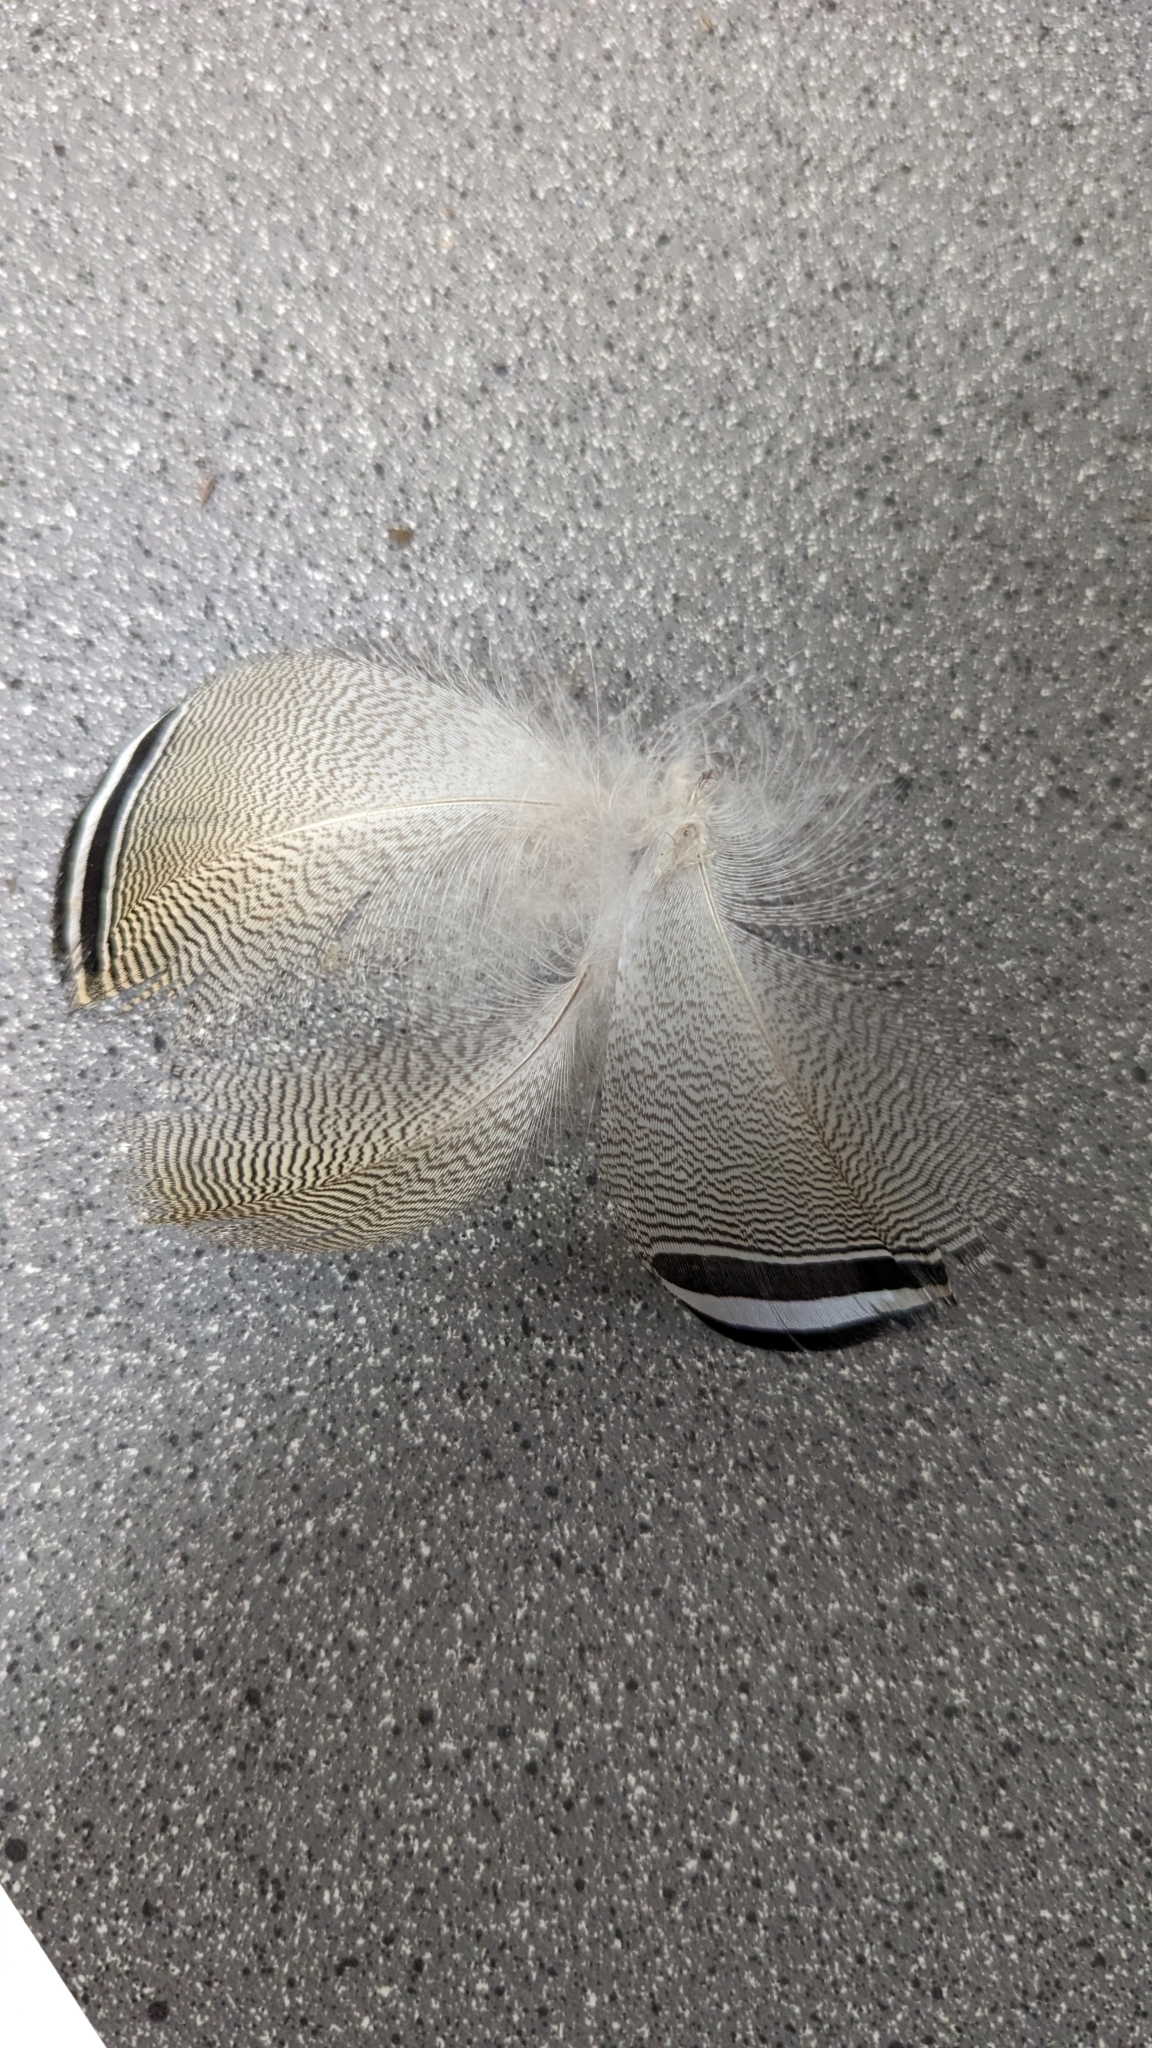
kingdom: Animalia
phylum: Chordata
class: Aves
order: Anseriformes
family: Anatidae
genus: Aix
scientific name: Aix sponsa
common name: Wood duck
